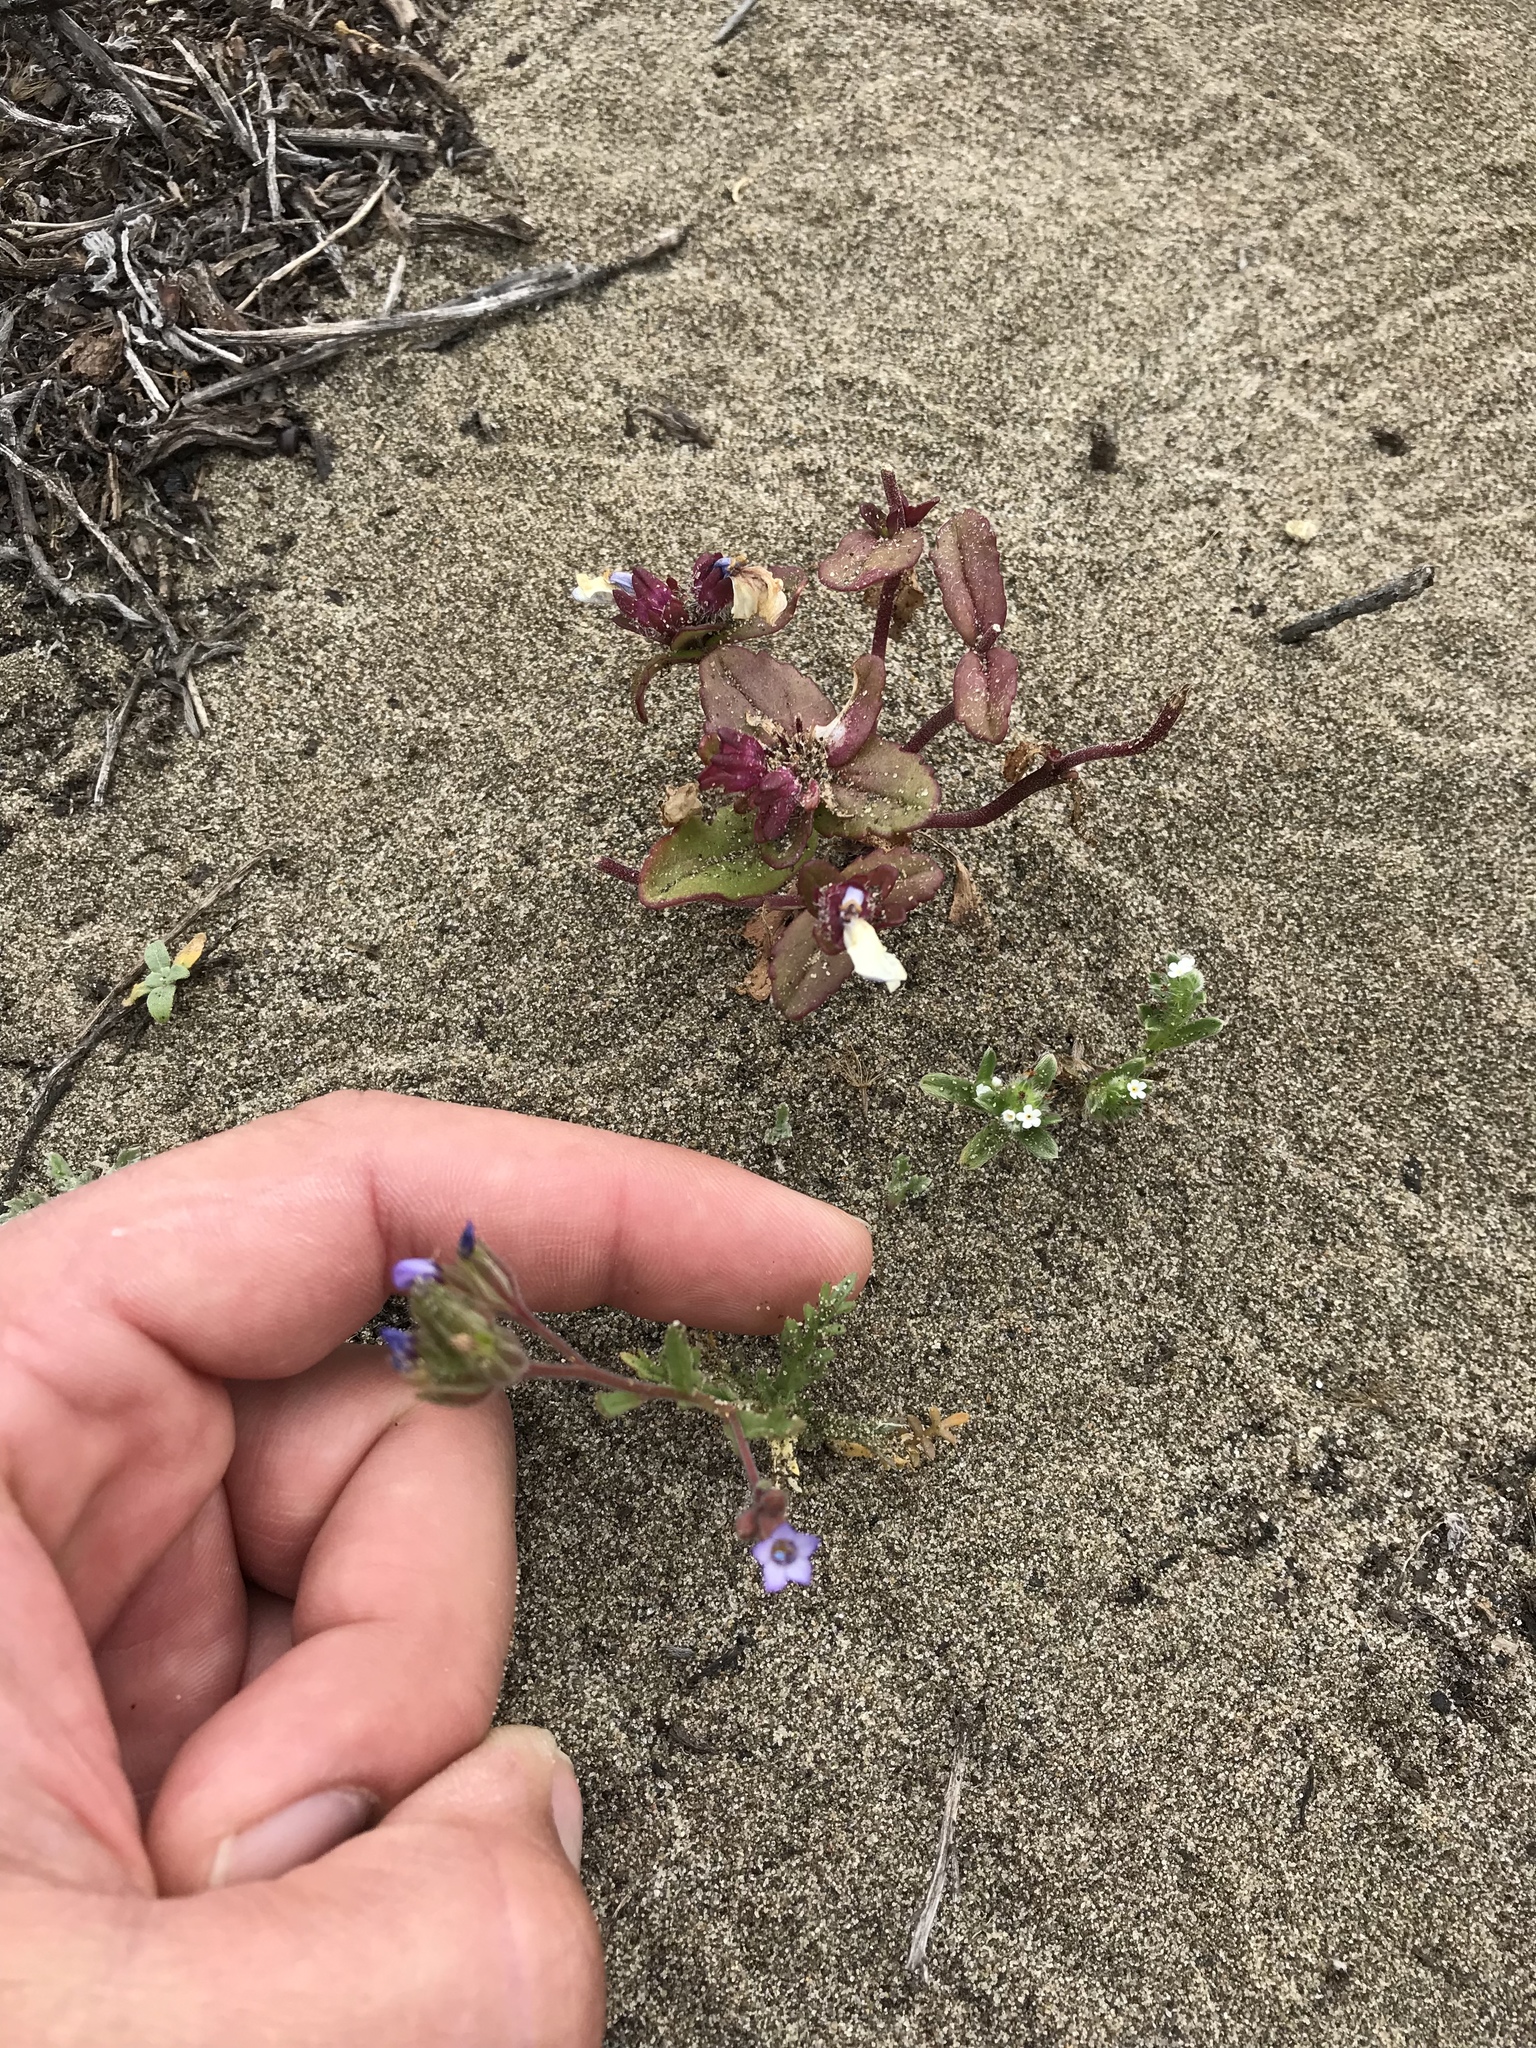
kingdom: Plantae
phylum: Tracheophyta
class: Magnoliopsida
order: Ericales
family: Polemoniaceae
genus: Gilia
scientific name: Gilia millefoliata
